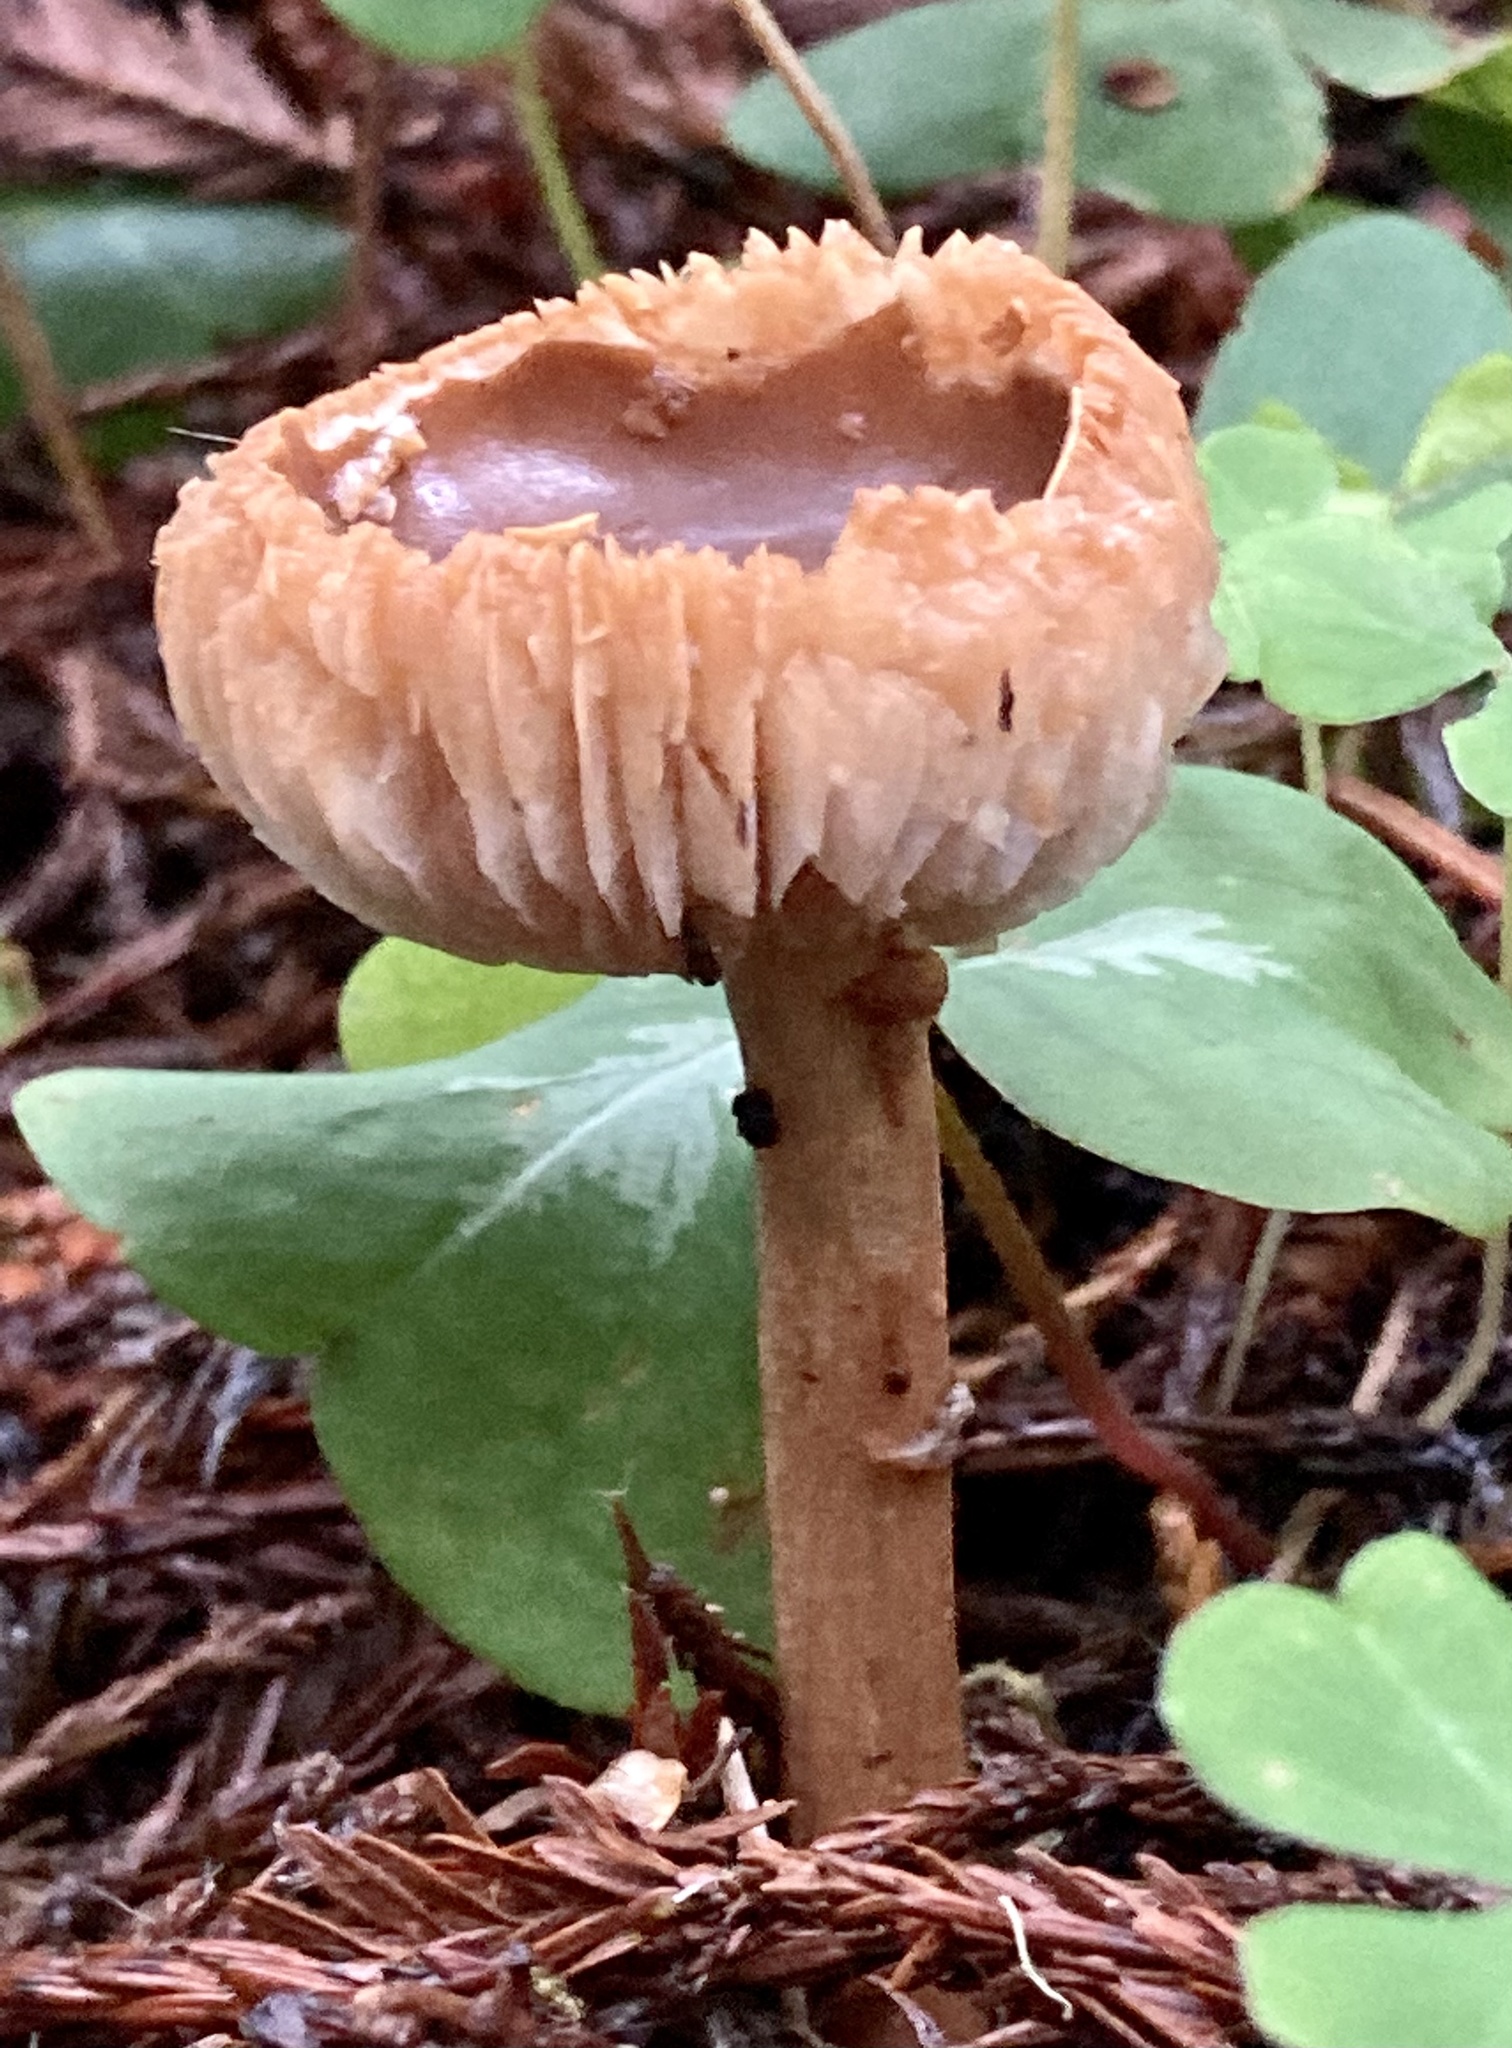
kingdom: Fungi
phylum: Basidiomycota
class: Agaricomycetes
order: Agaricales
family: Hydnangiaceae
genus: Laccaria
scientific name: Laccaria laccata
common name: Deceiver
